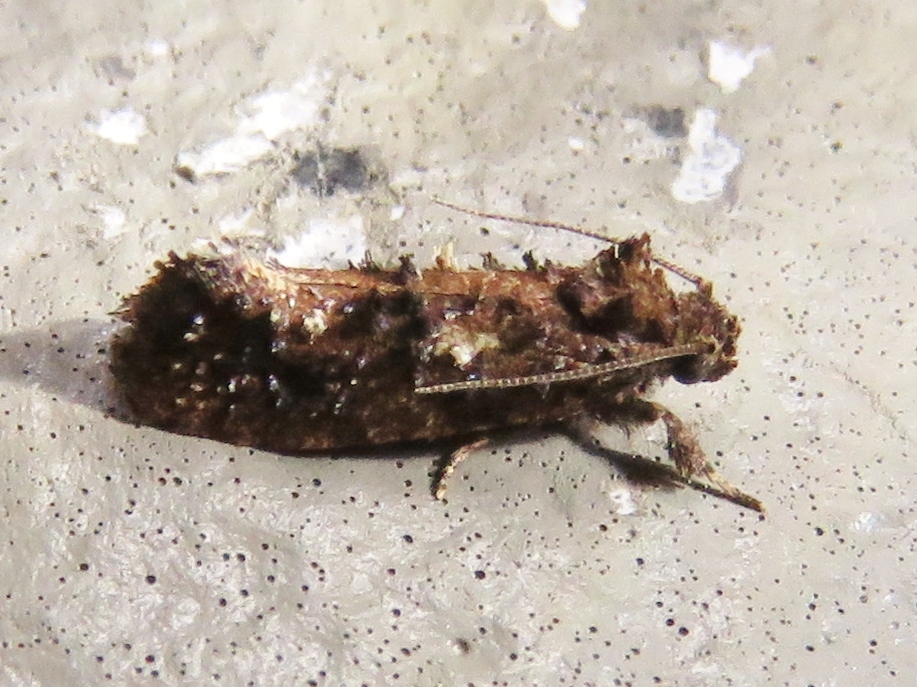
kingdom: Animalia
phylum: Arthropoda
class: Insecta
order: Lepidoptera
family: Tineidae
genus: Acrolophus
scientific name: Acrolophus cressoni
